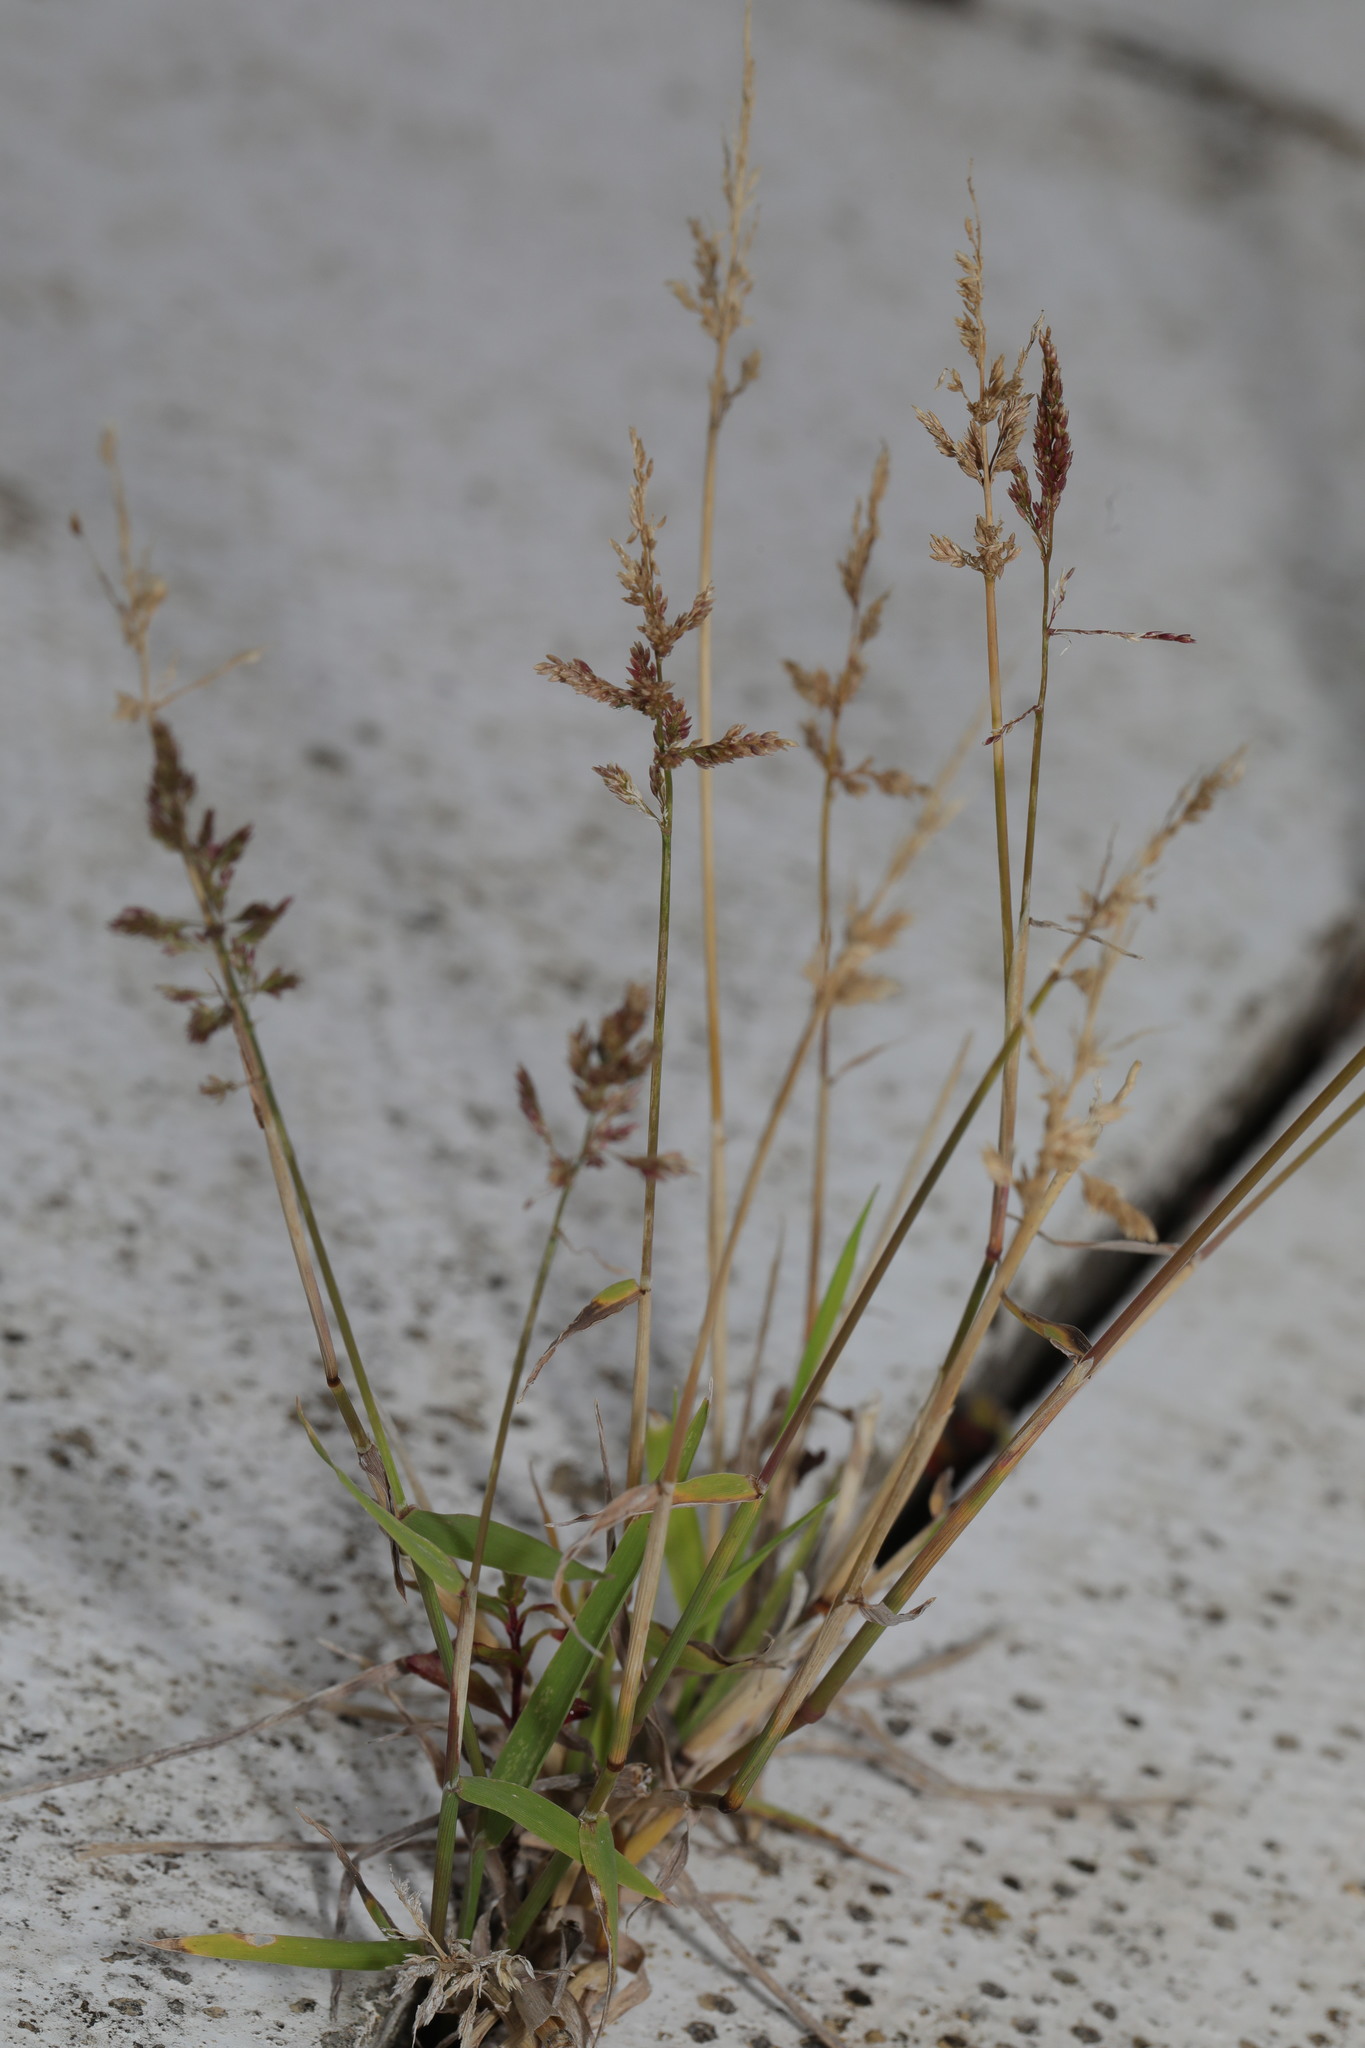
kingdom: Plantae
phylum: Tracheophyta
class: Liliopsida
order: Poales
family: Poaceae
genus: Polypogon
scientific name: Polypogon viridis
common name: Water bent
